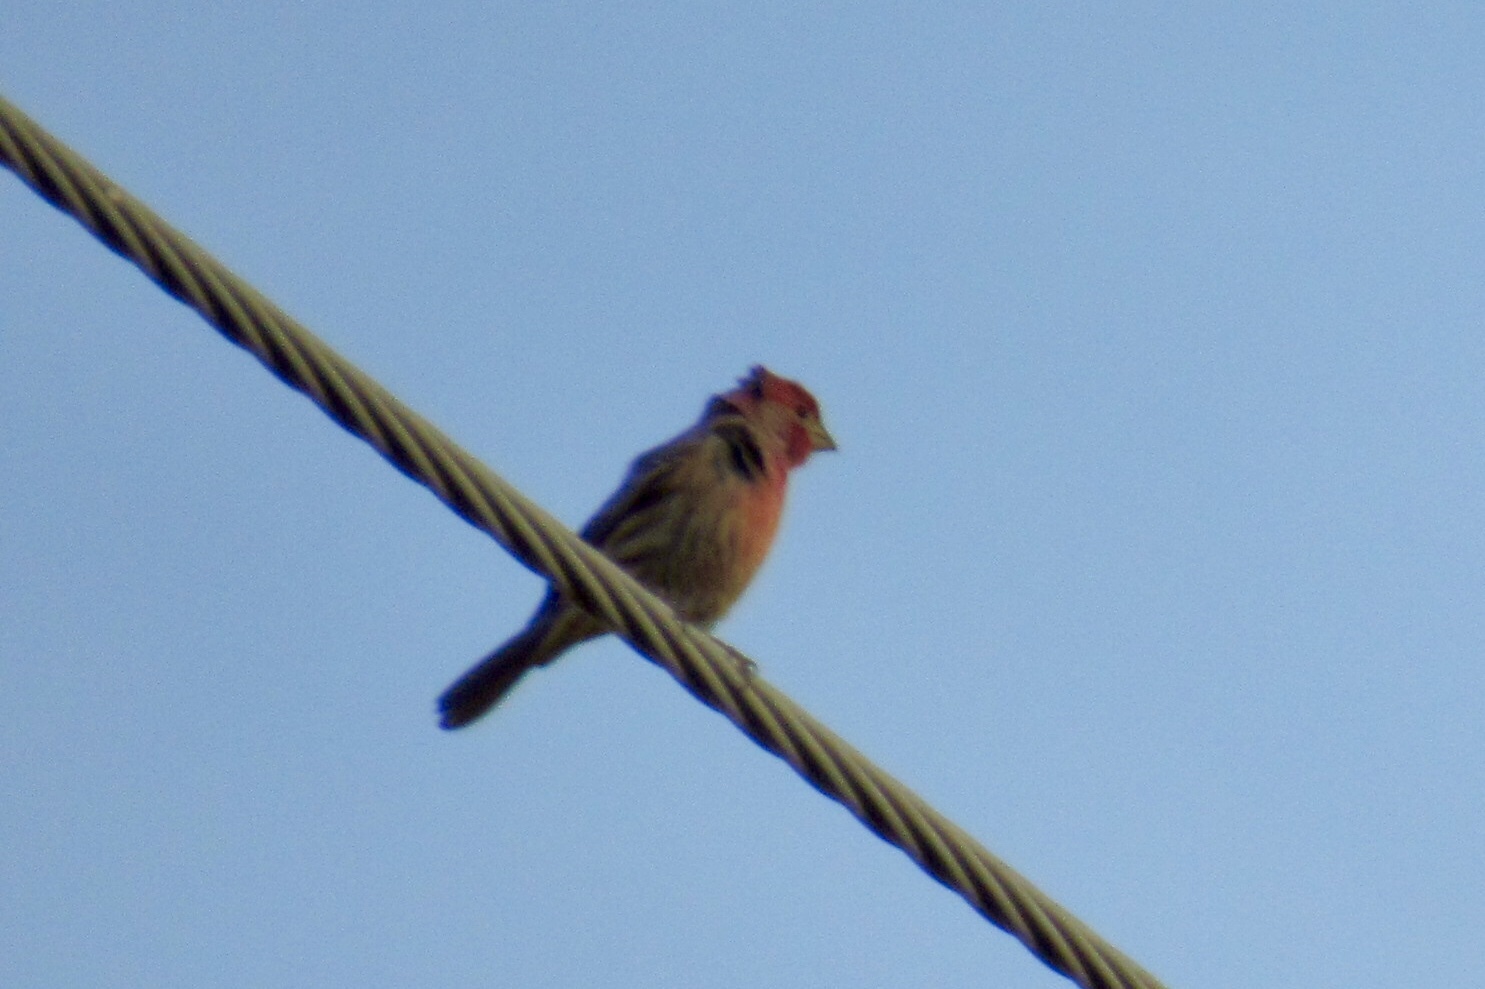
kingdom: Animalia
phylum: Chordata
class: Aves
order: Passeriformes
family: Fringillidae
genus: Haemorhous
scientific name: Haemorhous mexicanus
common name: House finch
